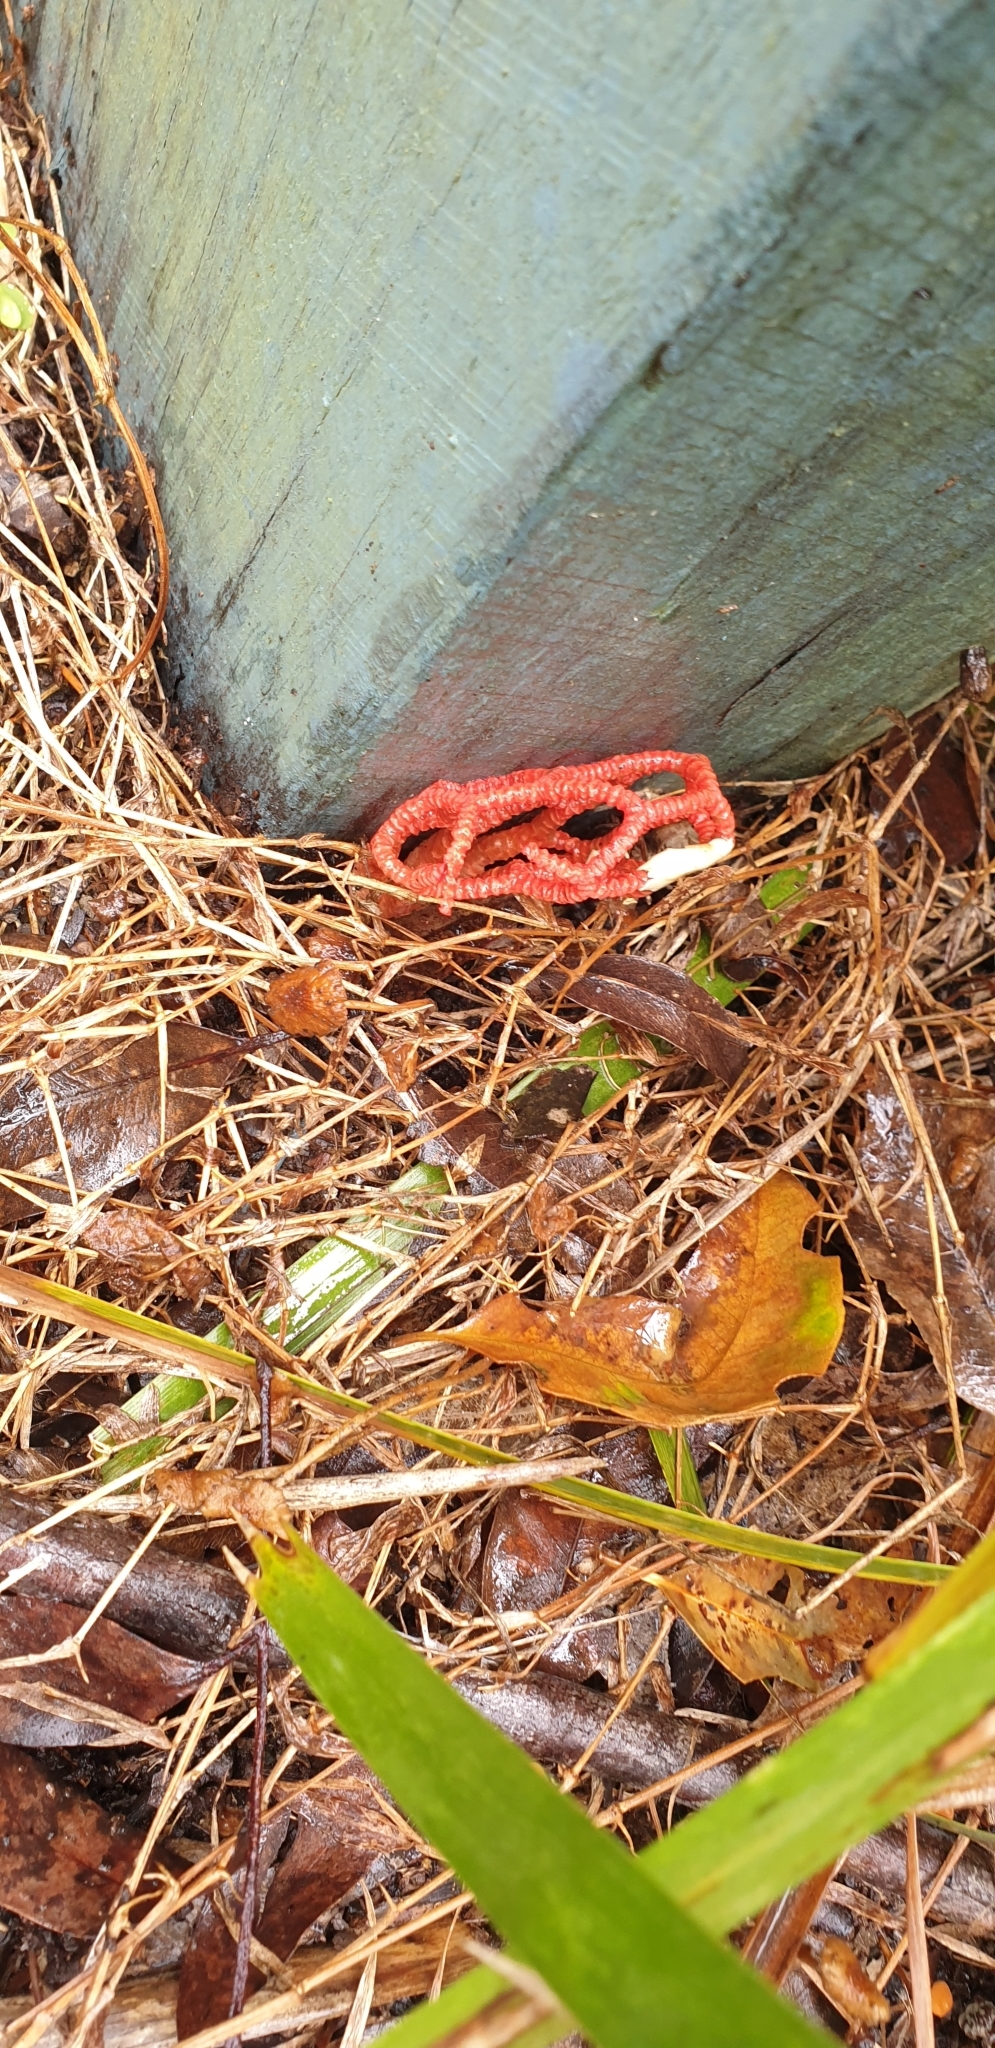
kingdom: Fungi
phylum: Basidiomycota
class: Agaricomycetes
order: Phallales
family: Phallaceae
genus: Colus
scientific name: Colus pusillus
